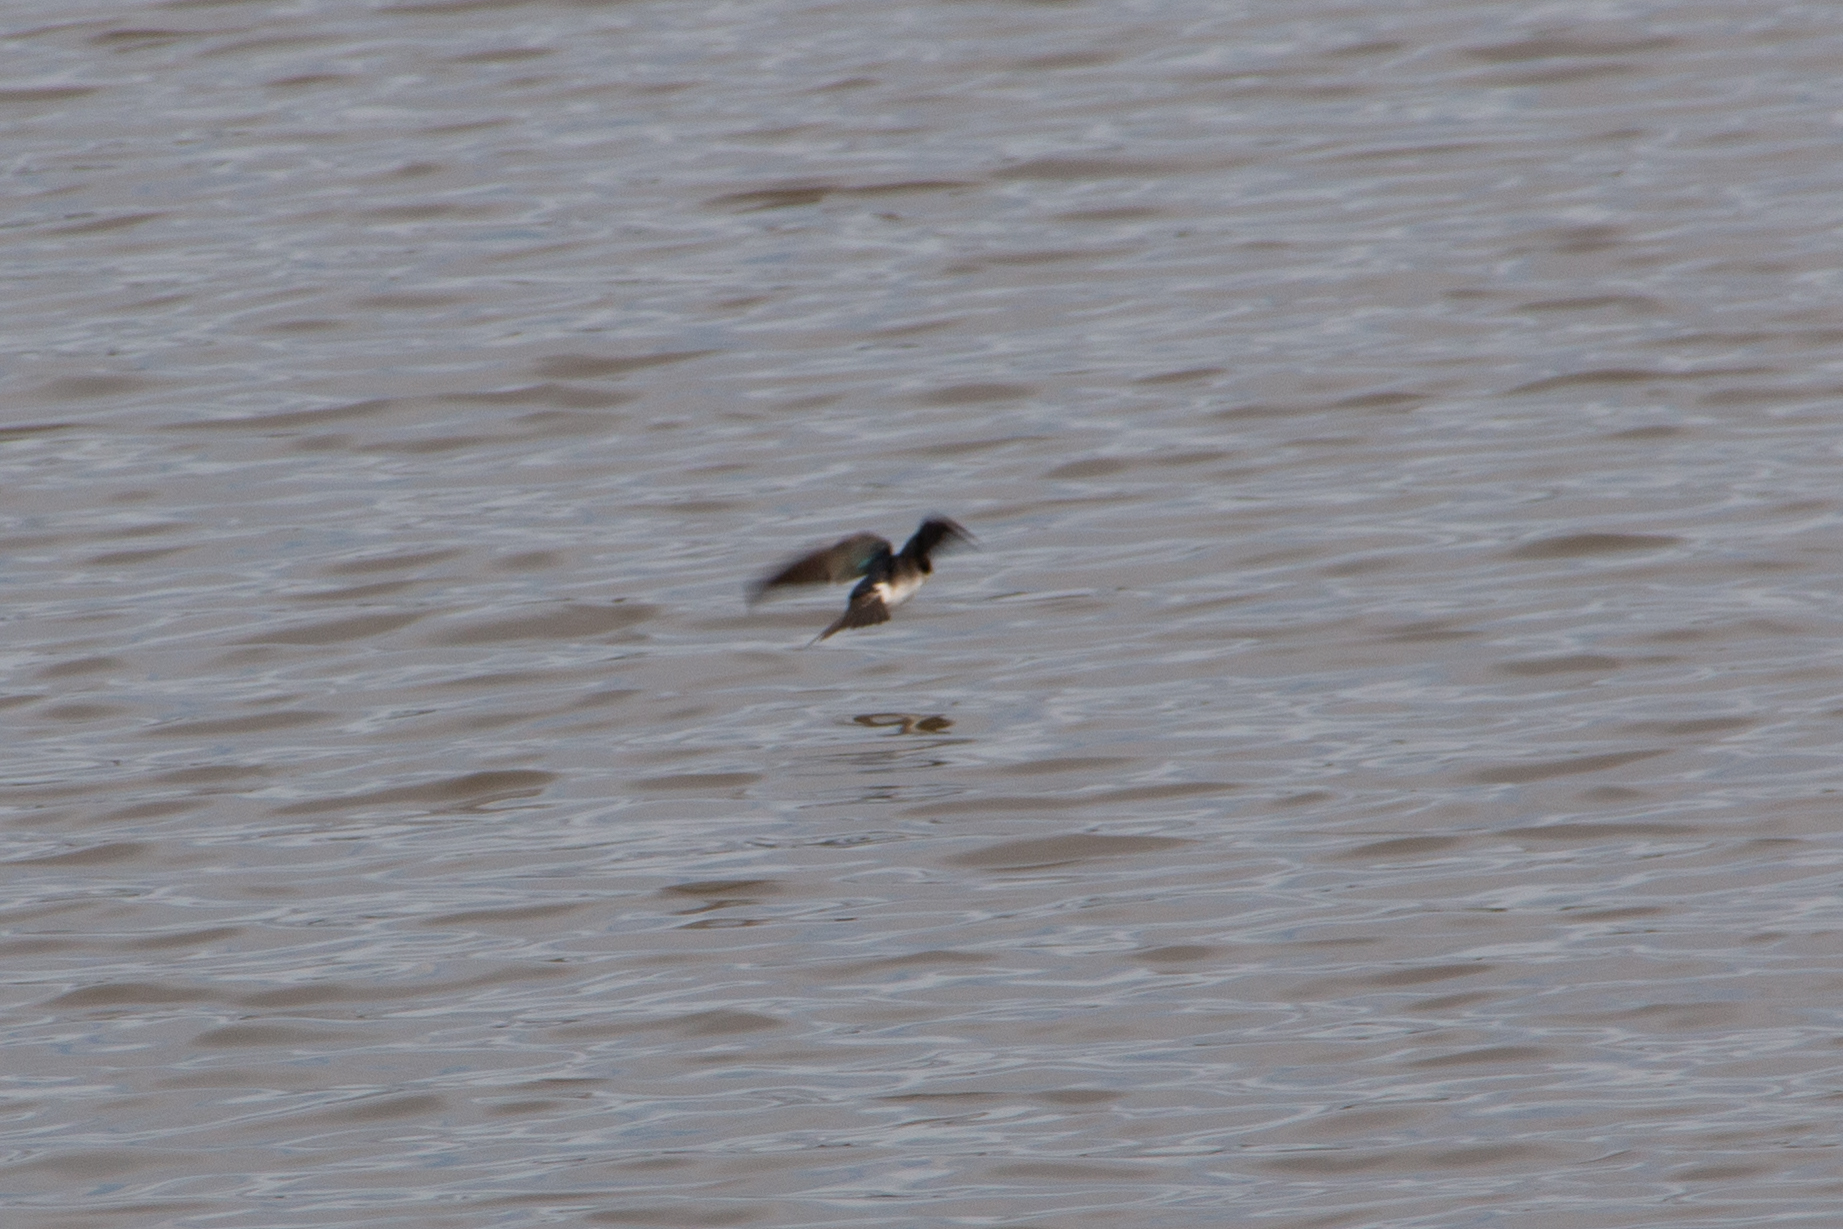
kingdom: Animalia
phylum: Chordata
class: Aves
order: Passeriformes
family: Hirundinidae
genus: Tachycineta
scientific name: Tachycineta bicolor
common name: Tree swallow
